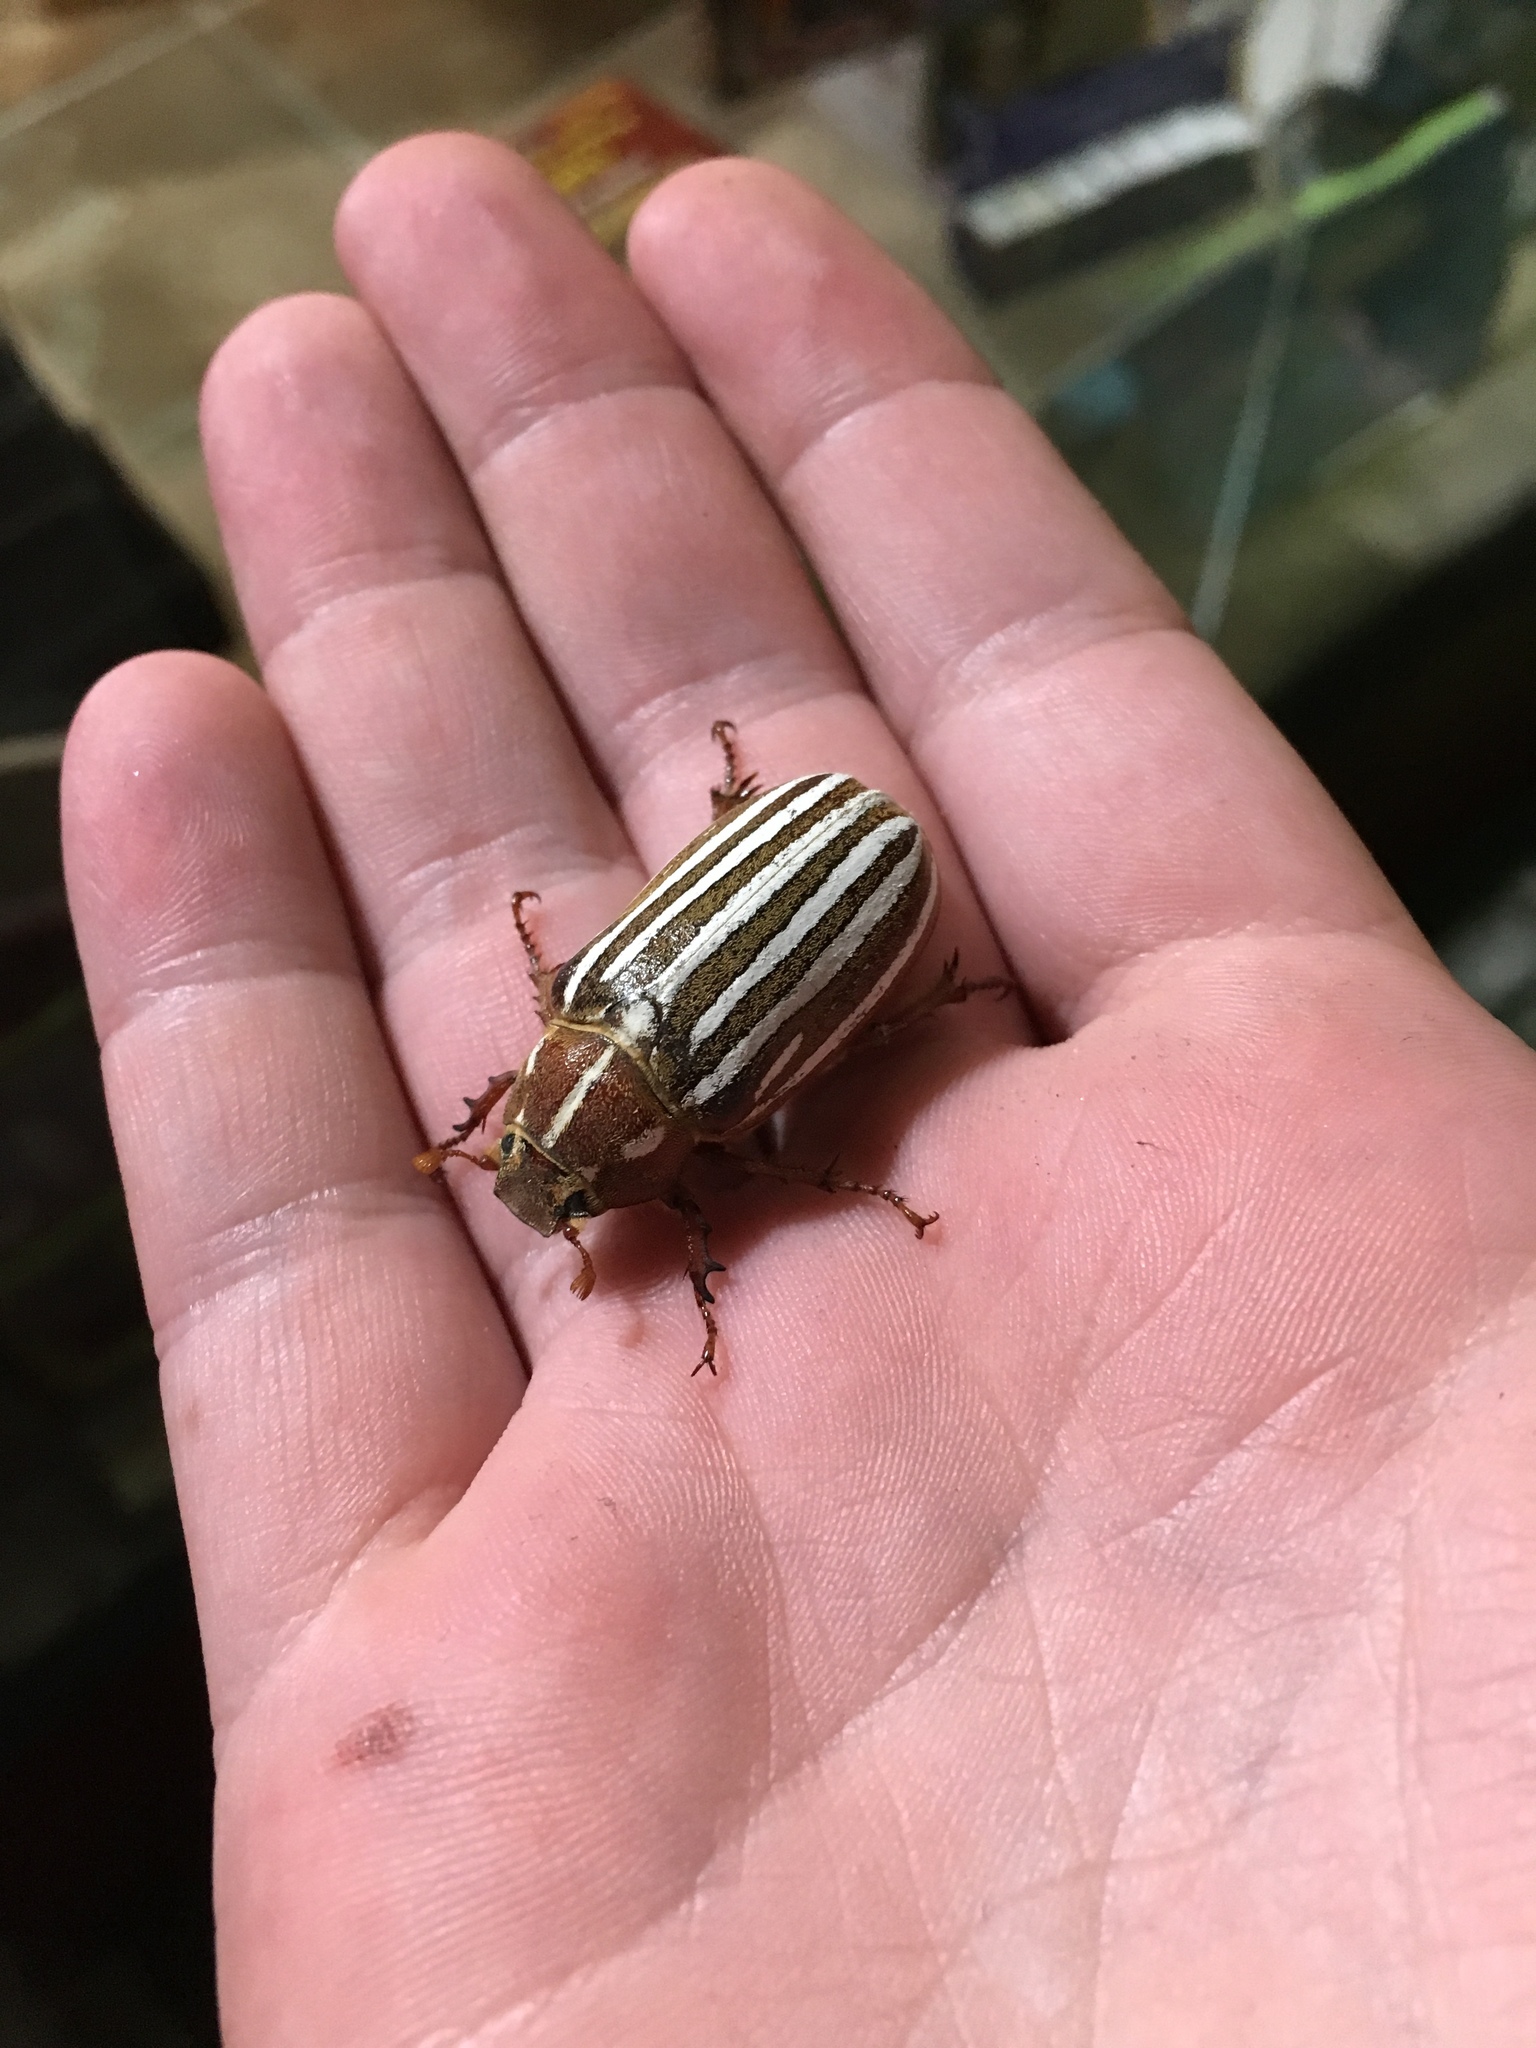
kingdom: Animalia
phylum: Arthropoda
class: Insecta
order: Coleoptera
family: Scarabaeidae
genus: Polyphylla
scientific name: Polyphylla decemlineata
